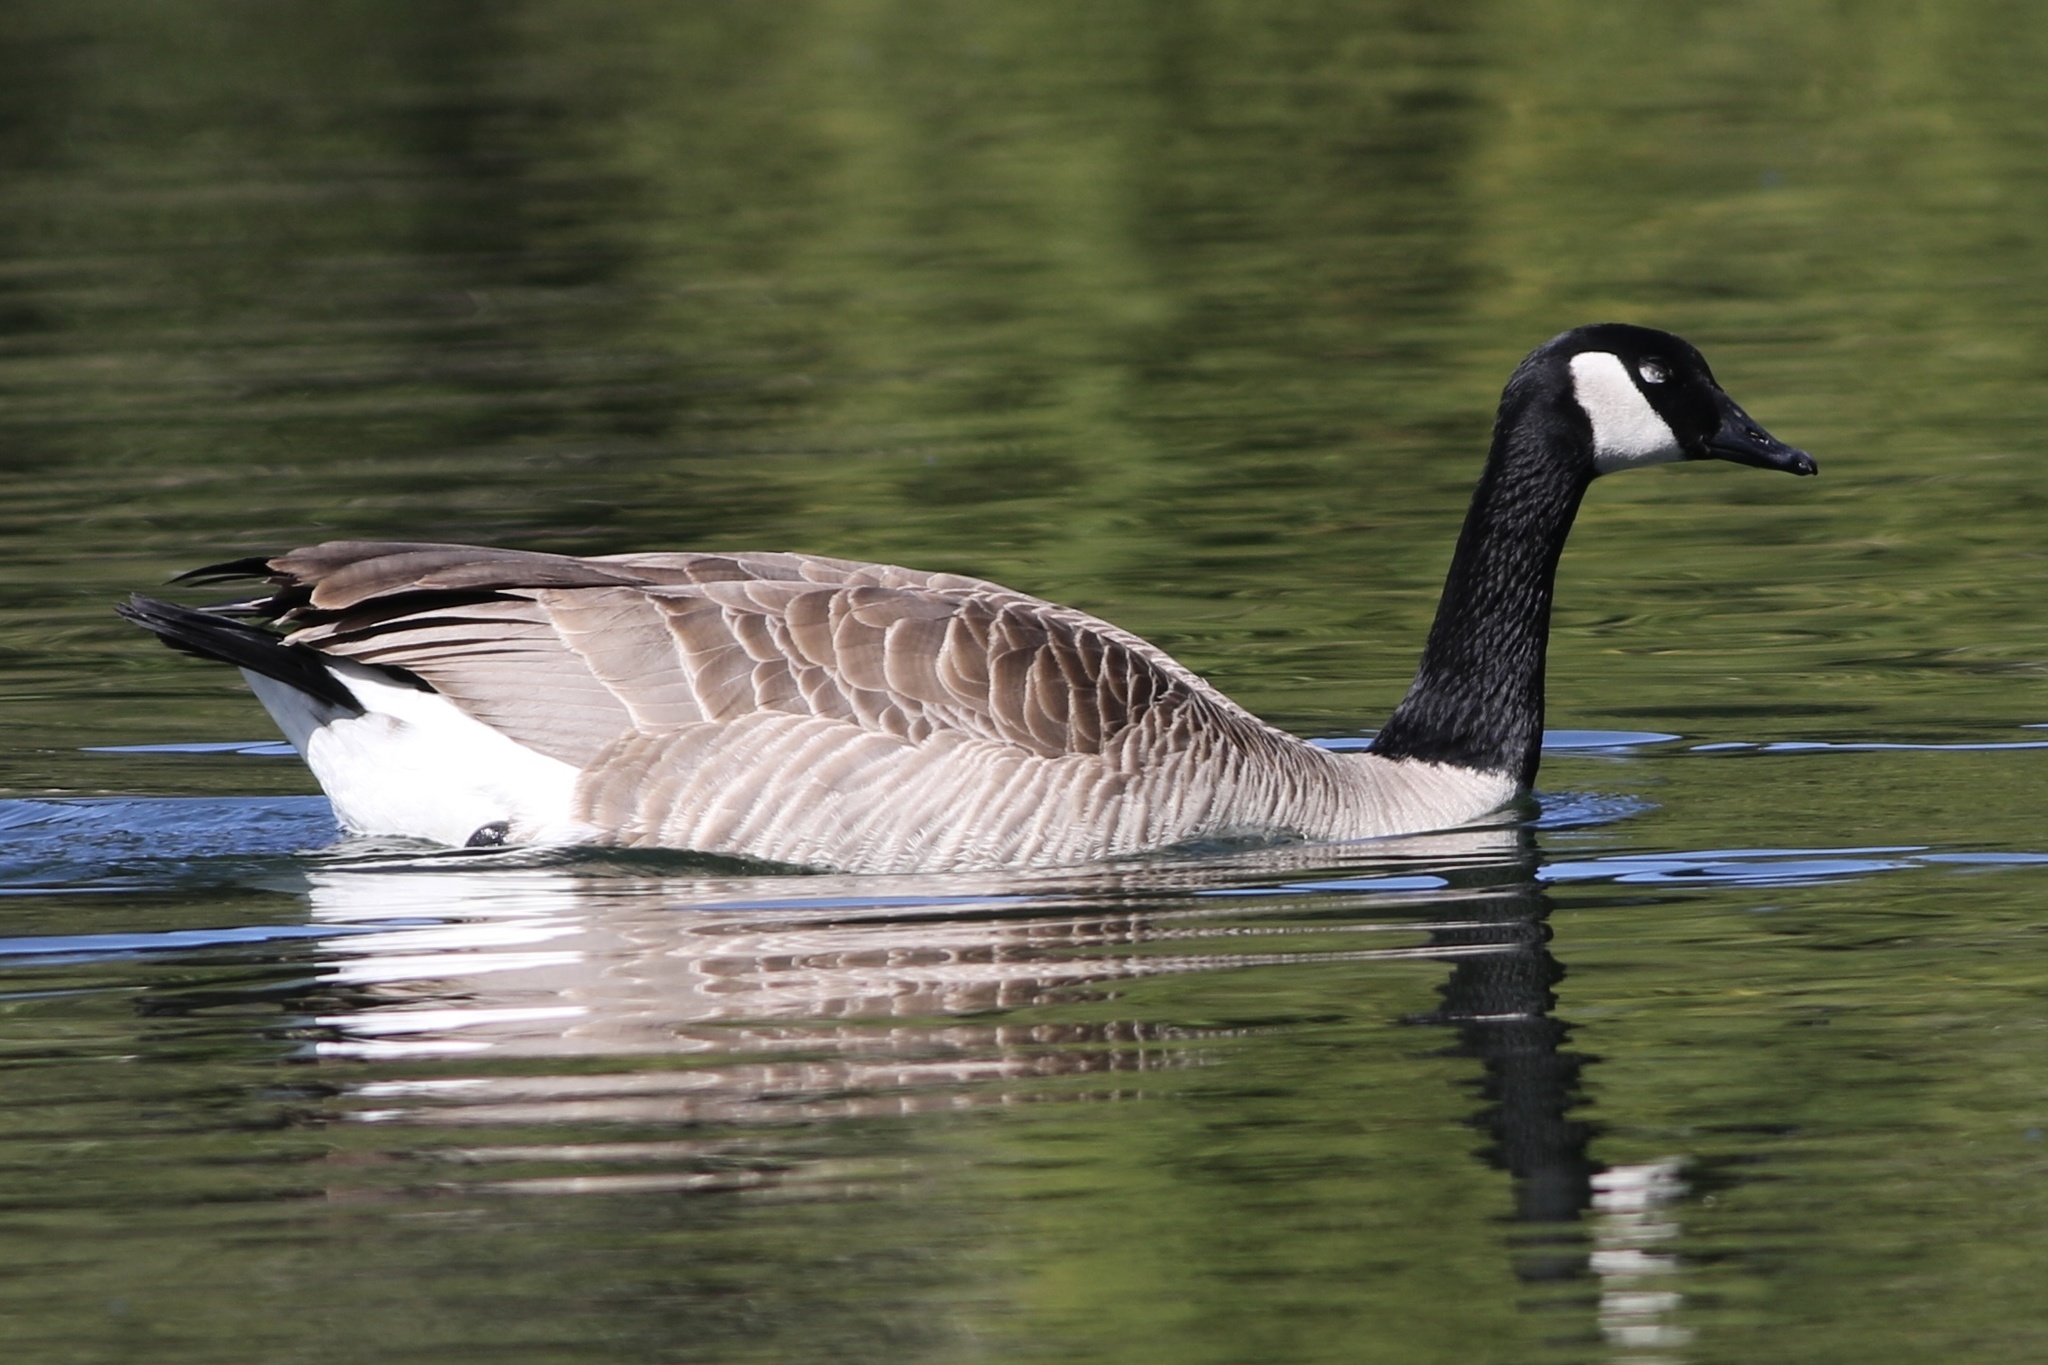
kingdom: Animalia
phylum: Chordata
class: Aves
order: Anseriformes
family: Anatidae
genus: Branta
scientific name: Branta canadensis
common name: Canada goose
